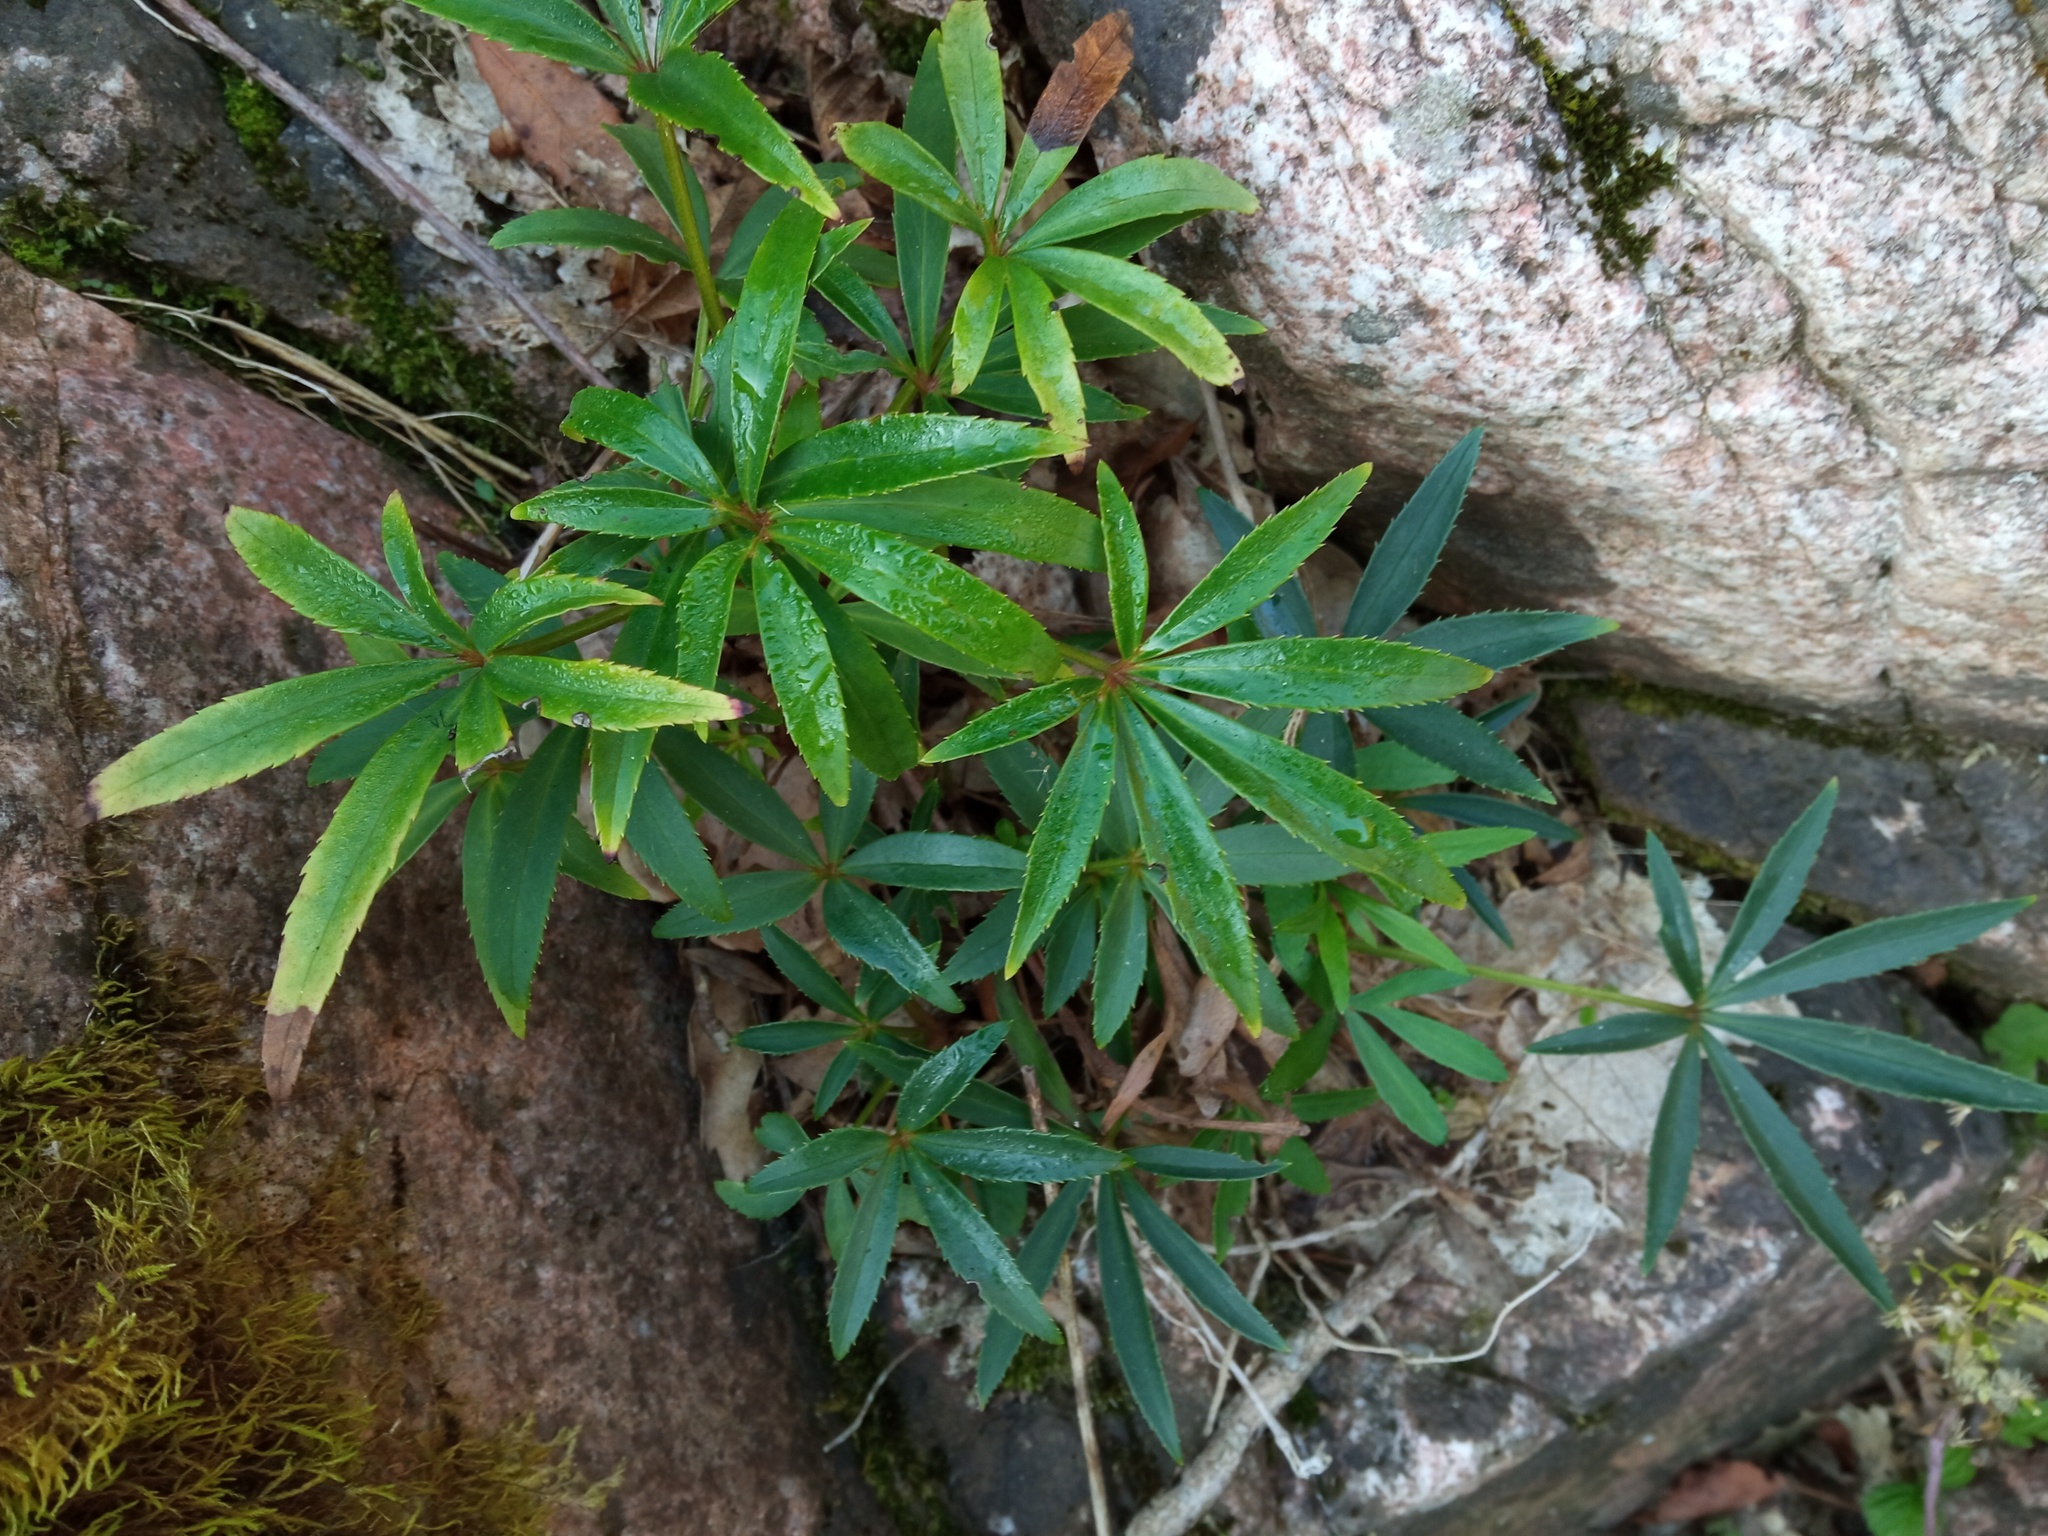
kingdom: Plantae
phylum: Tracheophyta
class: Magnoliopsida
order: Ranunculales
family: Ranunculaceae
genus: Helleborus
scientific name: Helleborus foetidus
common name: Stinking hellebore
